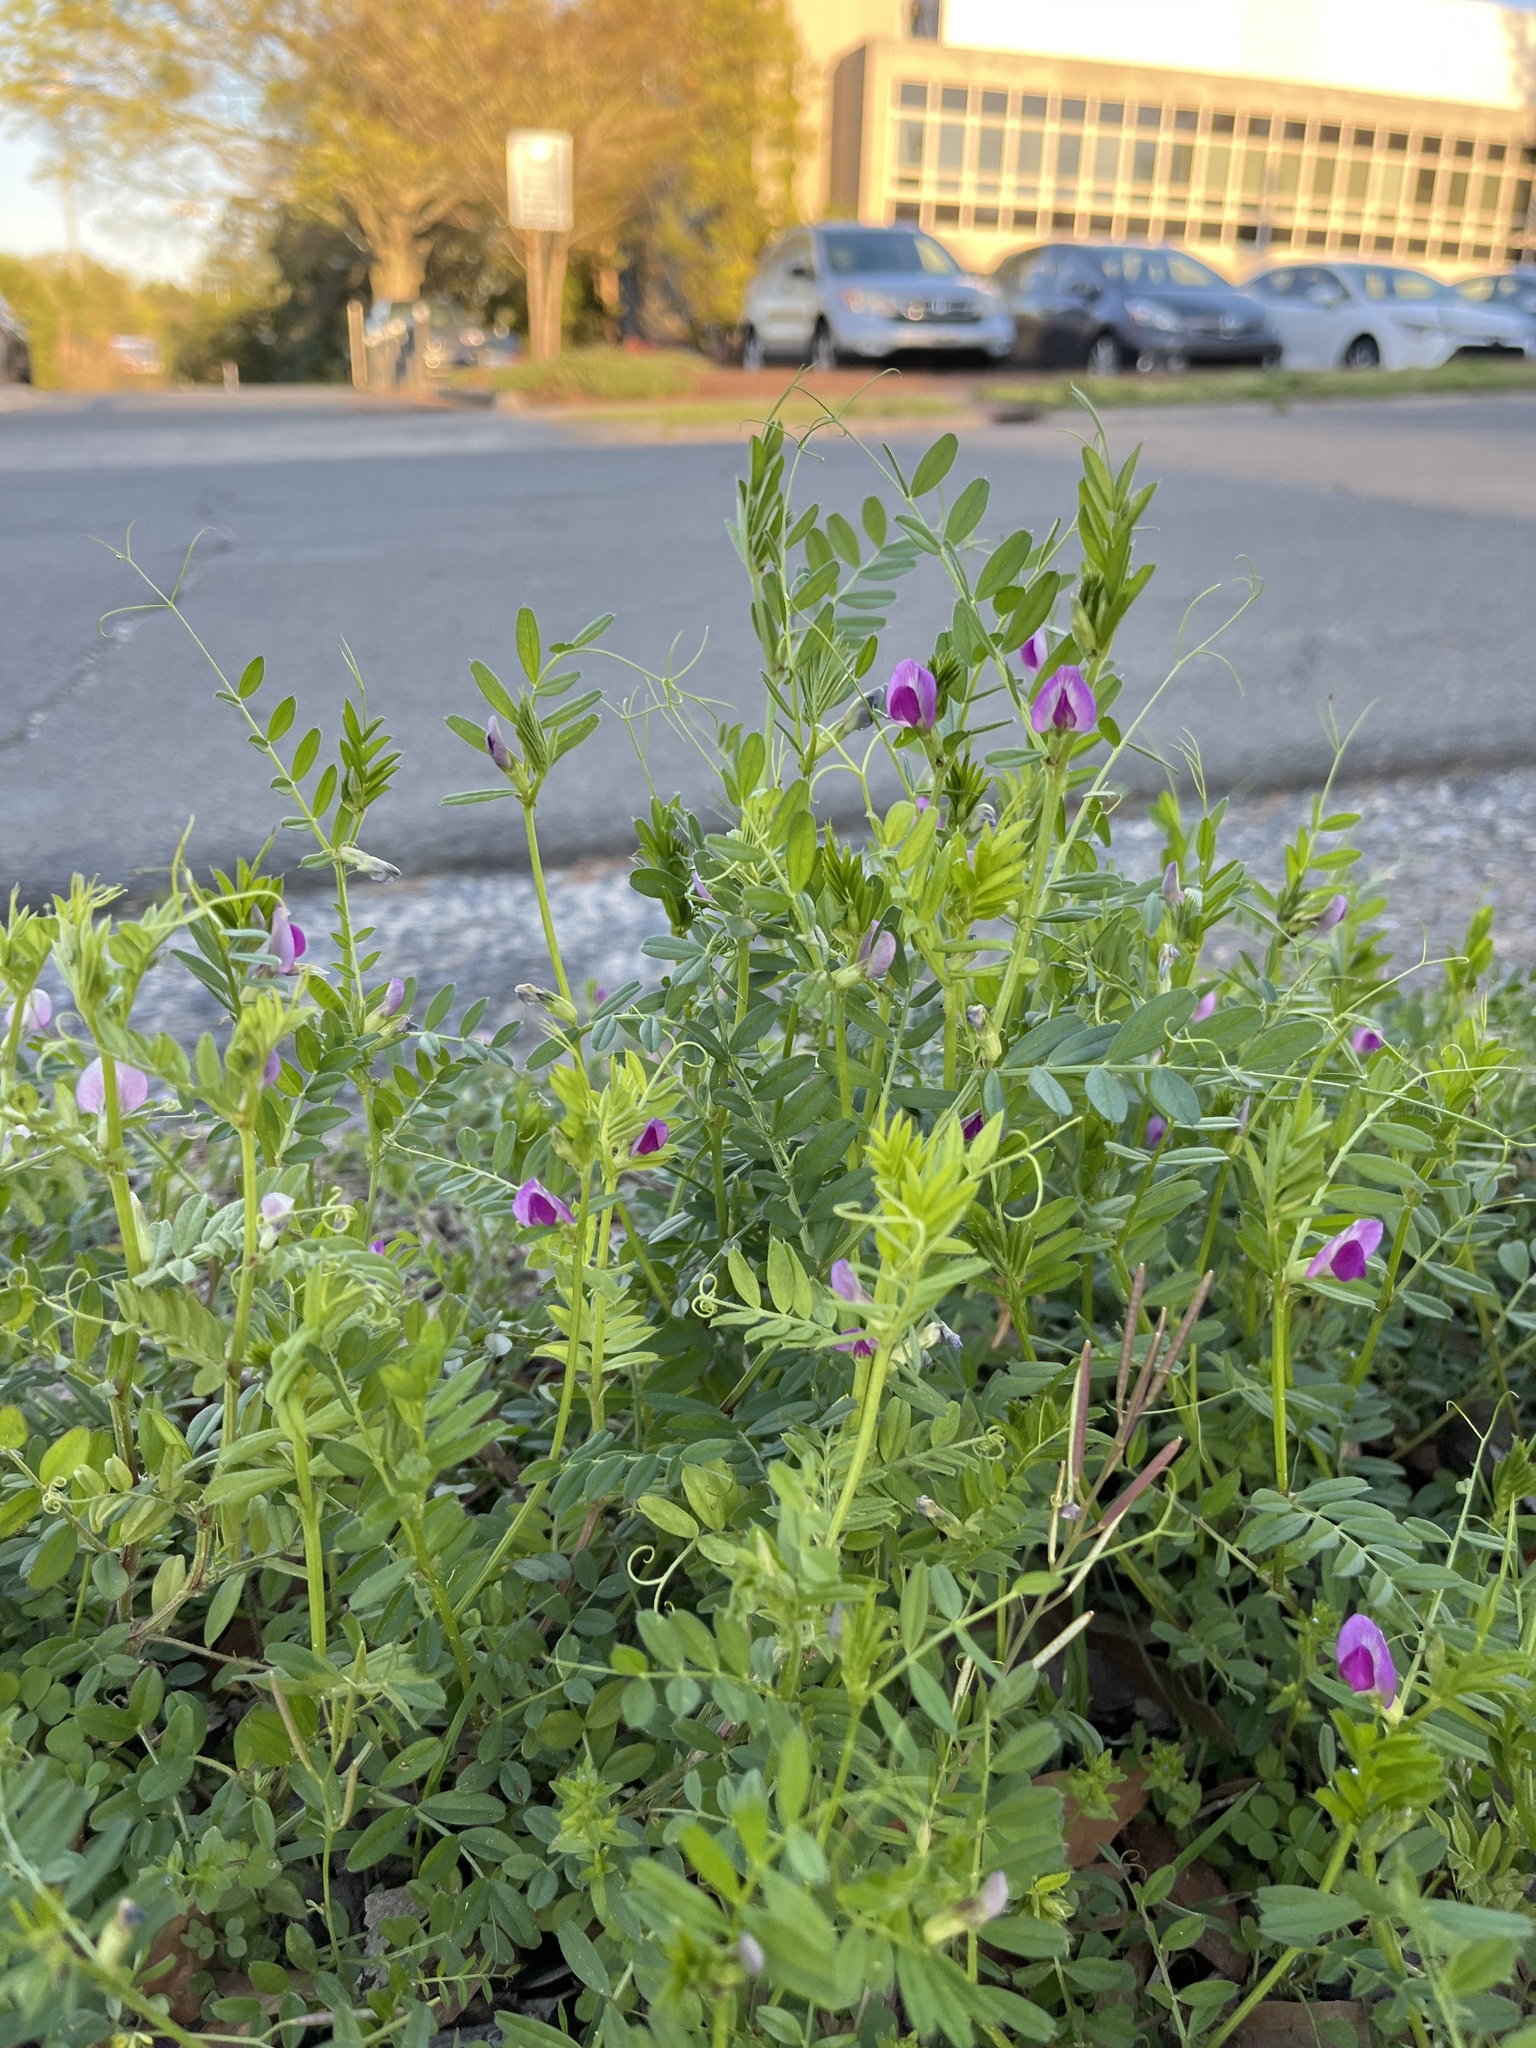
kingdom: Plantae
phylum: Tracheophyta
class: Magnoliopsida
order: Fabales
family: Fabaceae
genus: Vicia
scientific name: Vicia sativa
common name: Garden vetch
